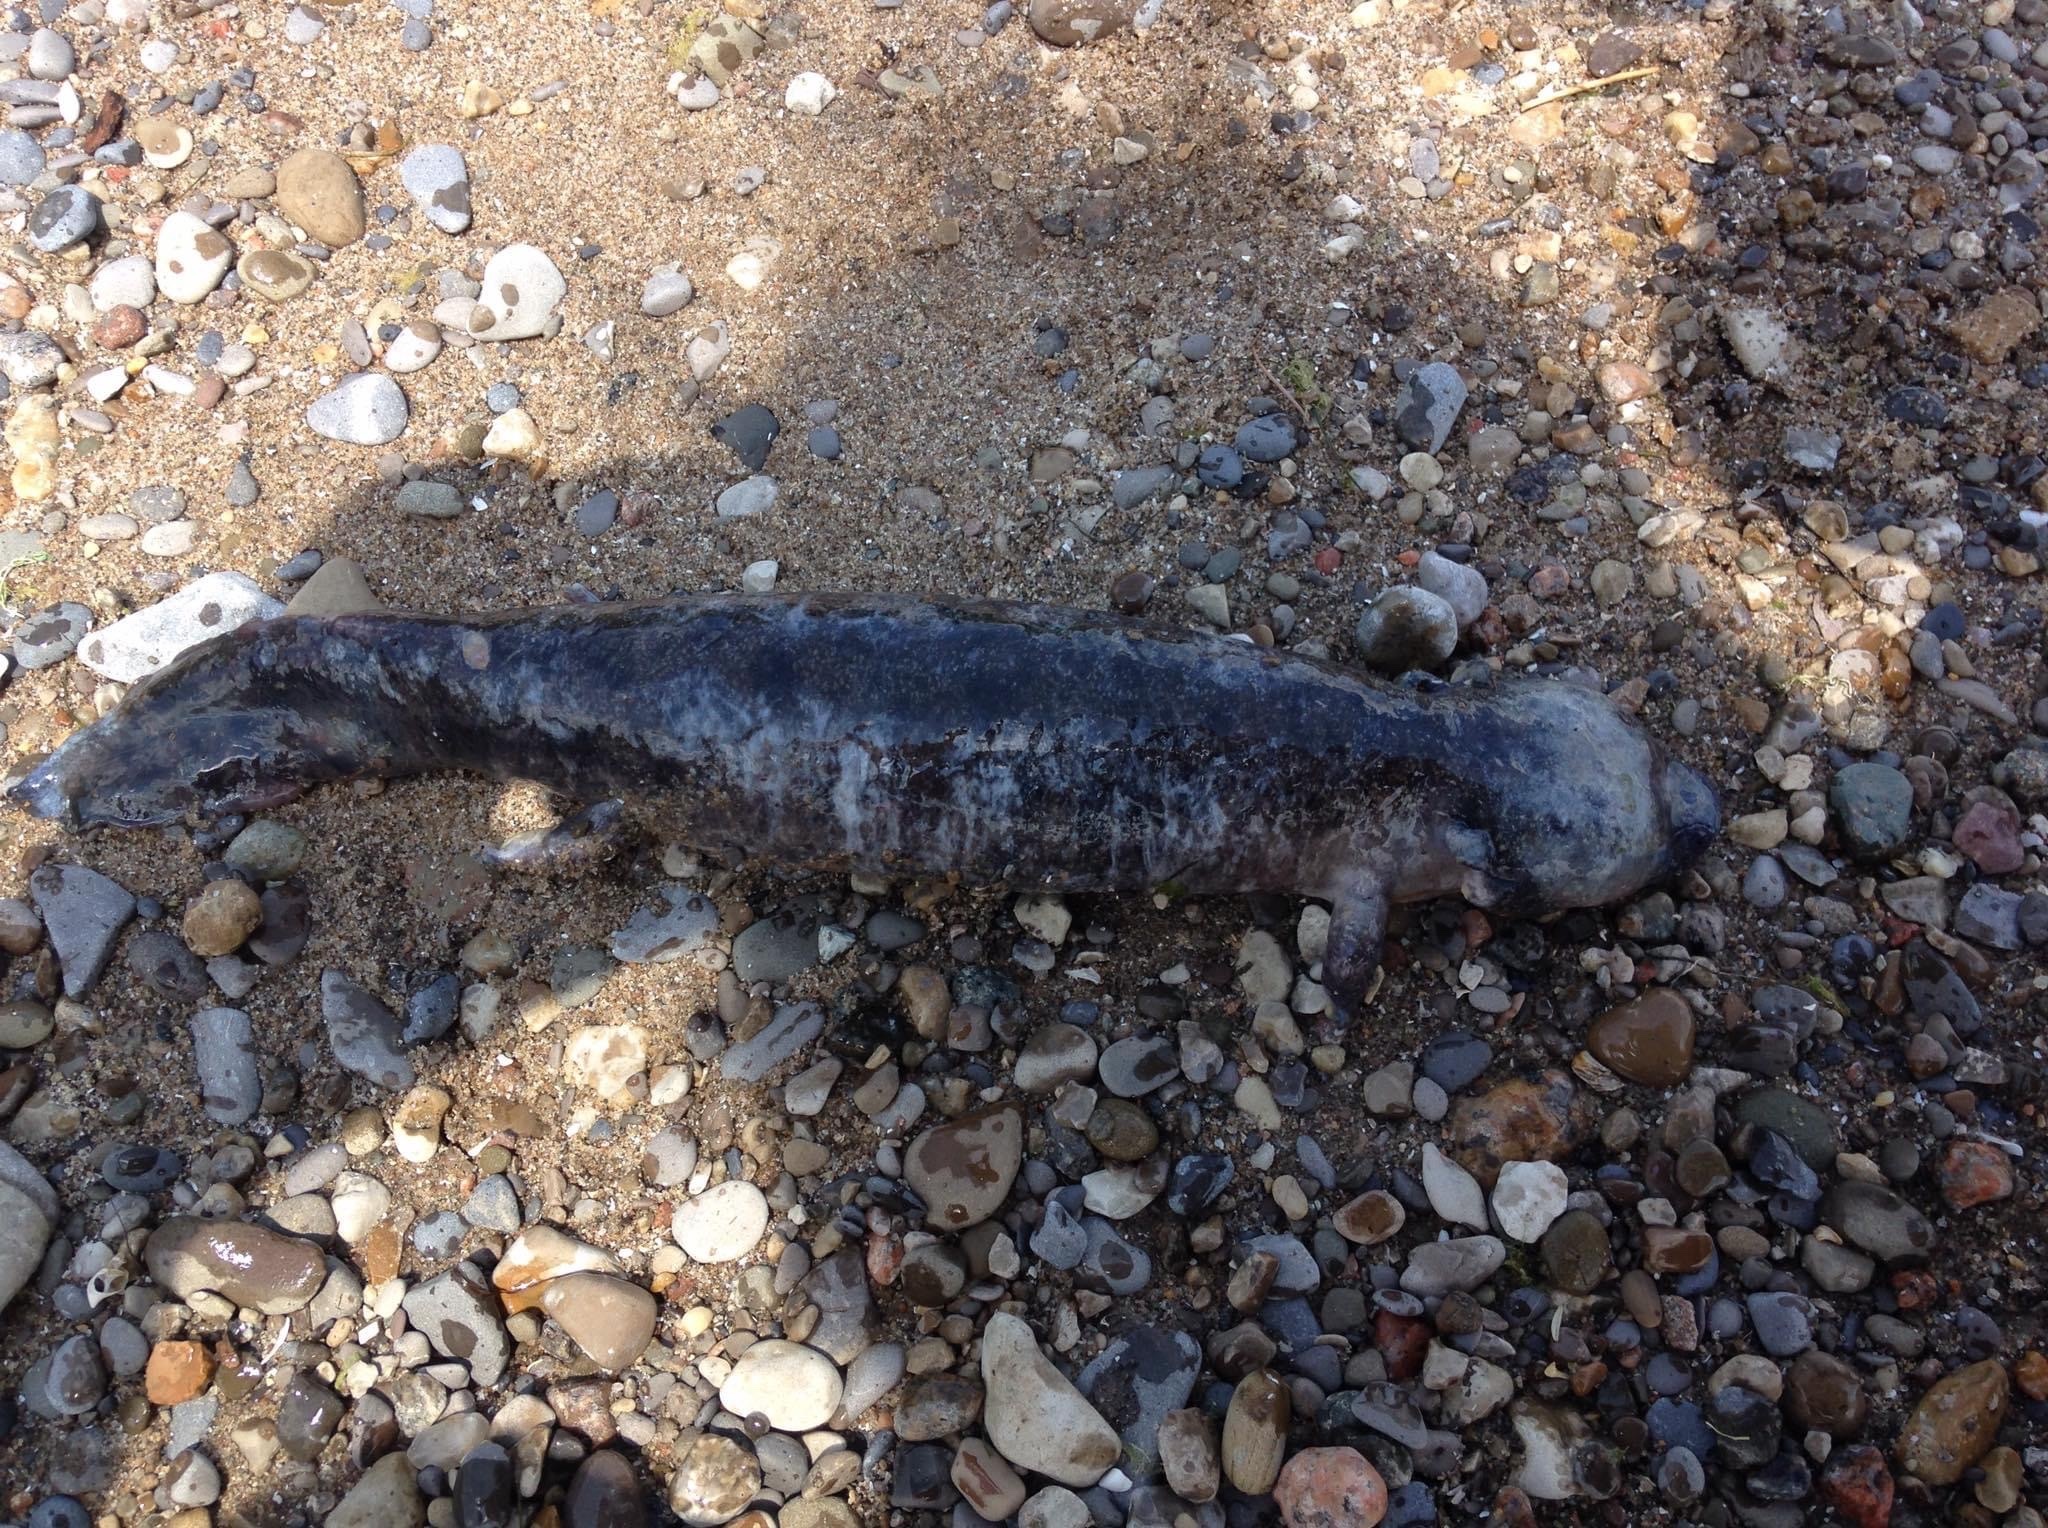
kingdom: Animalia
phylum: Chordata
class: Amphibia
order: Caudata
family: Proteidae
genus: Necturus
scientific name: Necturus maculosus
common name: Mudpuppy
